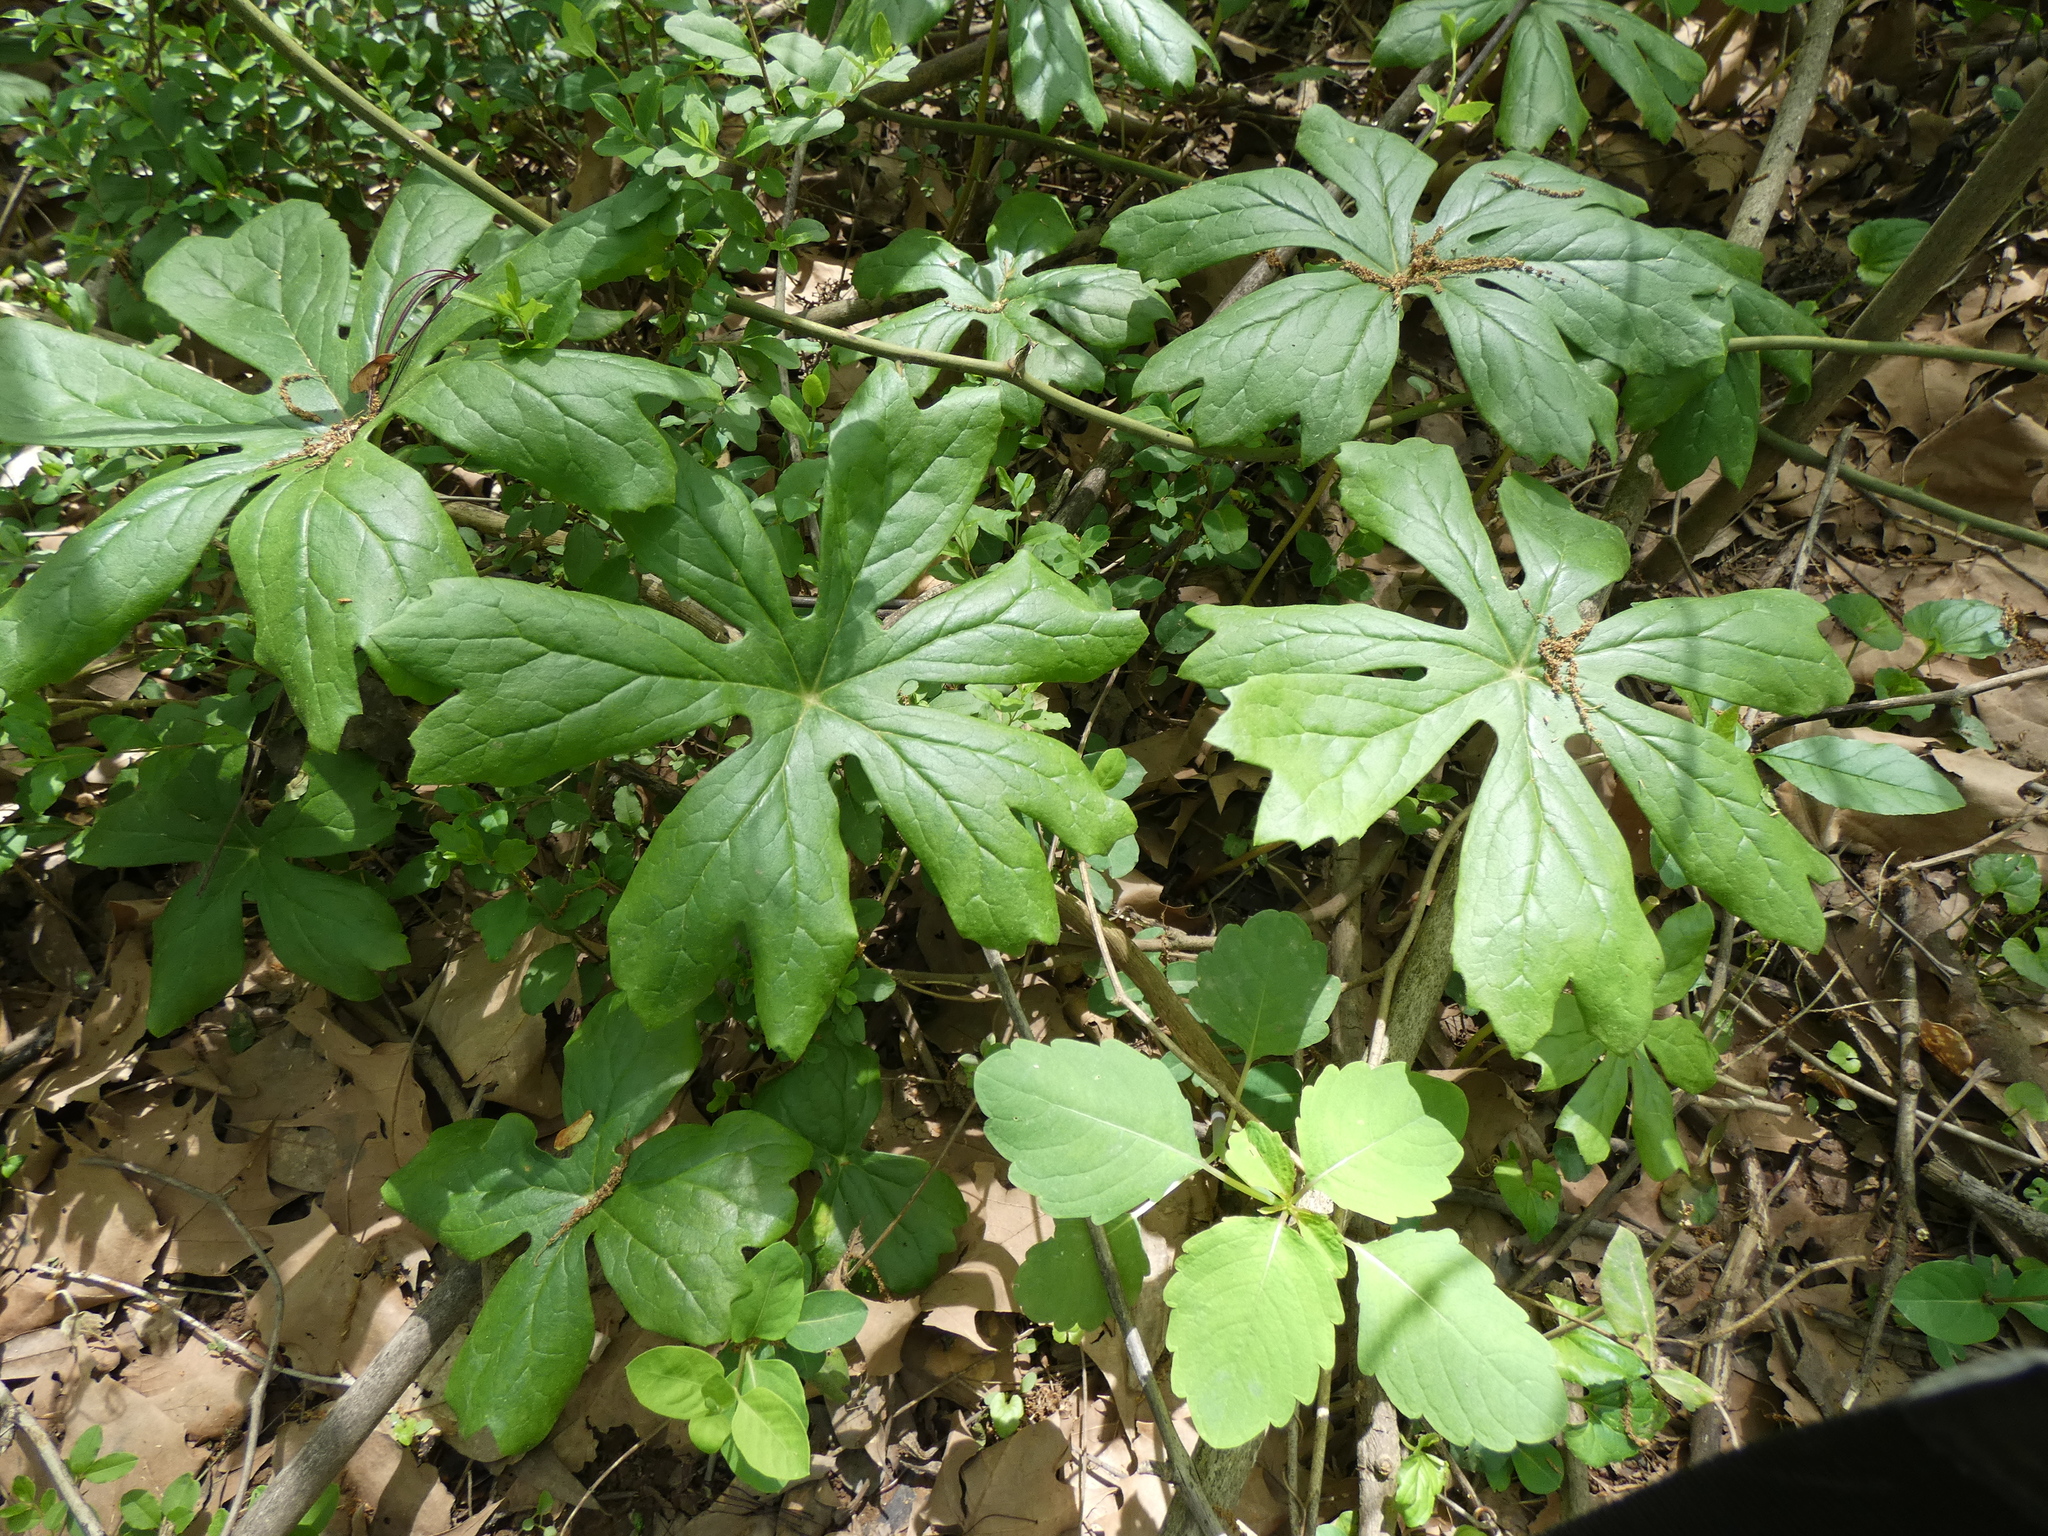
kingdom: Plantae
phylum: Tracheophyta
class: Magnoliopsida
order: Ranunculales
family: Berberidaceae
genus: Podophyllum
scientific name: Podophyllum peltatum
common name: Wild mandrake
